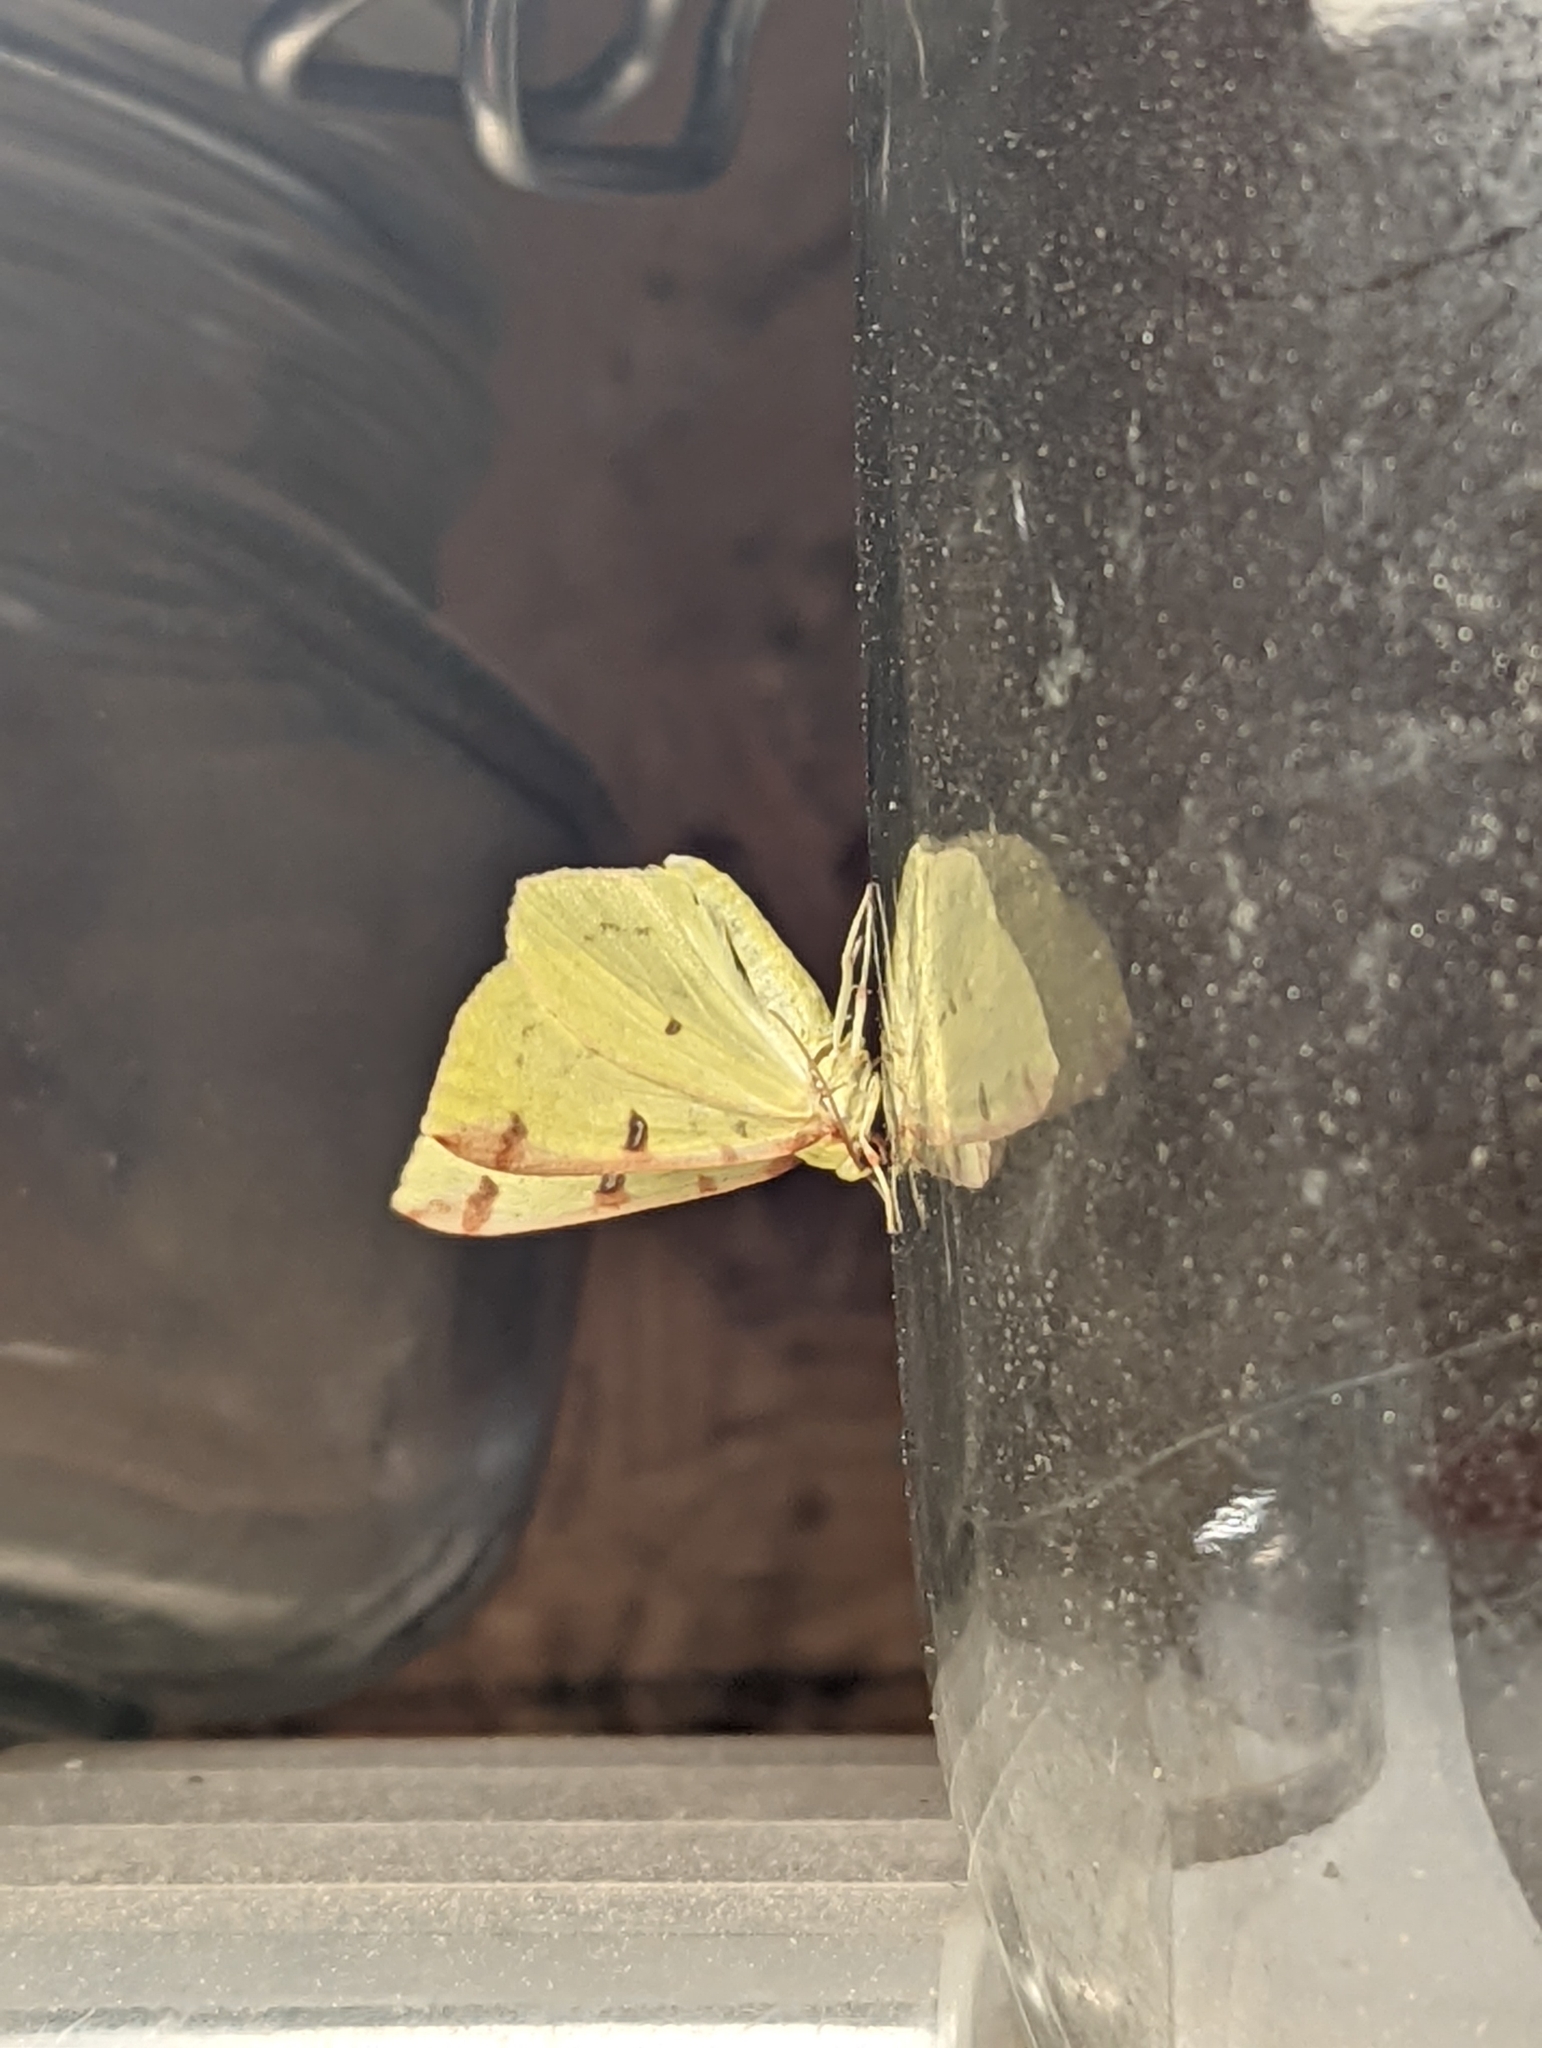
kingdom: Animalia
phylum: Arthropoda
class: Insecta
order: Lepidoptera
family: Geometridae
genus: Opisthograptis
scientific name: Opisthograptis luteolata
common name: Brimstone moth
